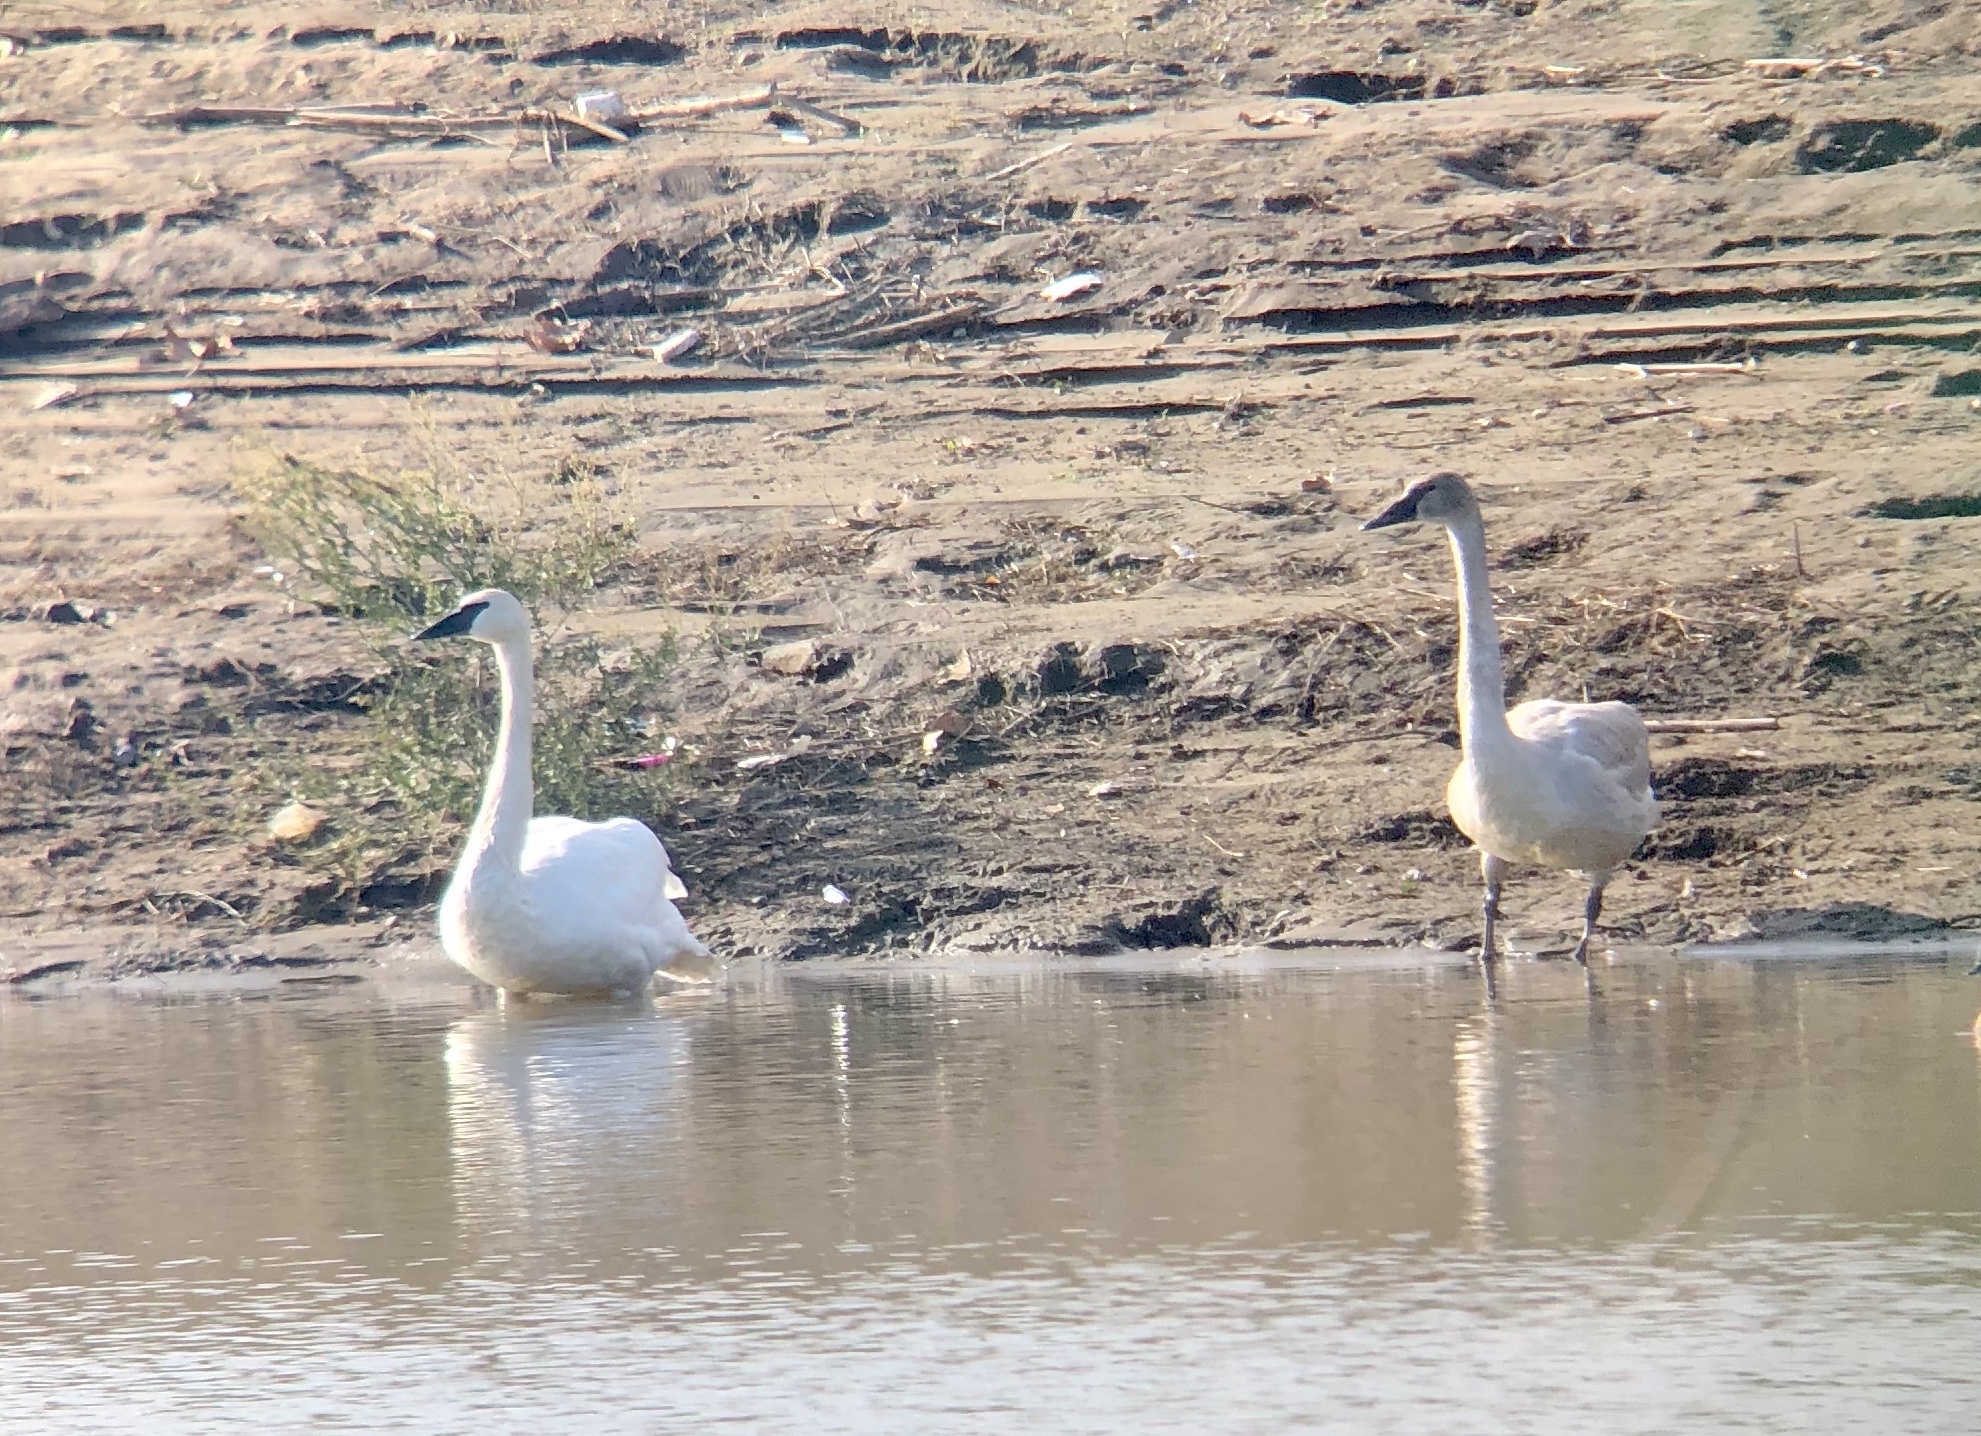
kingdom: Animalia
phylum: Chordata
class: Aves
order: Anseriformes
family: Anatidae
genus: Cygnus
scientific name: Cygnus buccinator
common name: Trumpeter swan
